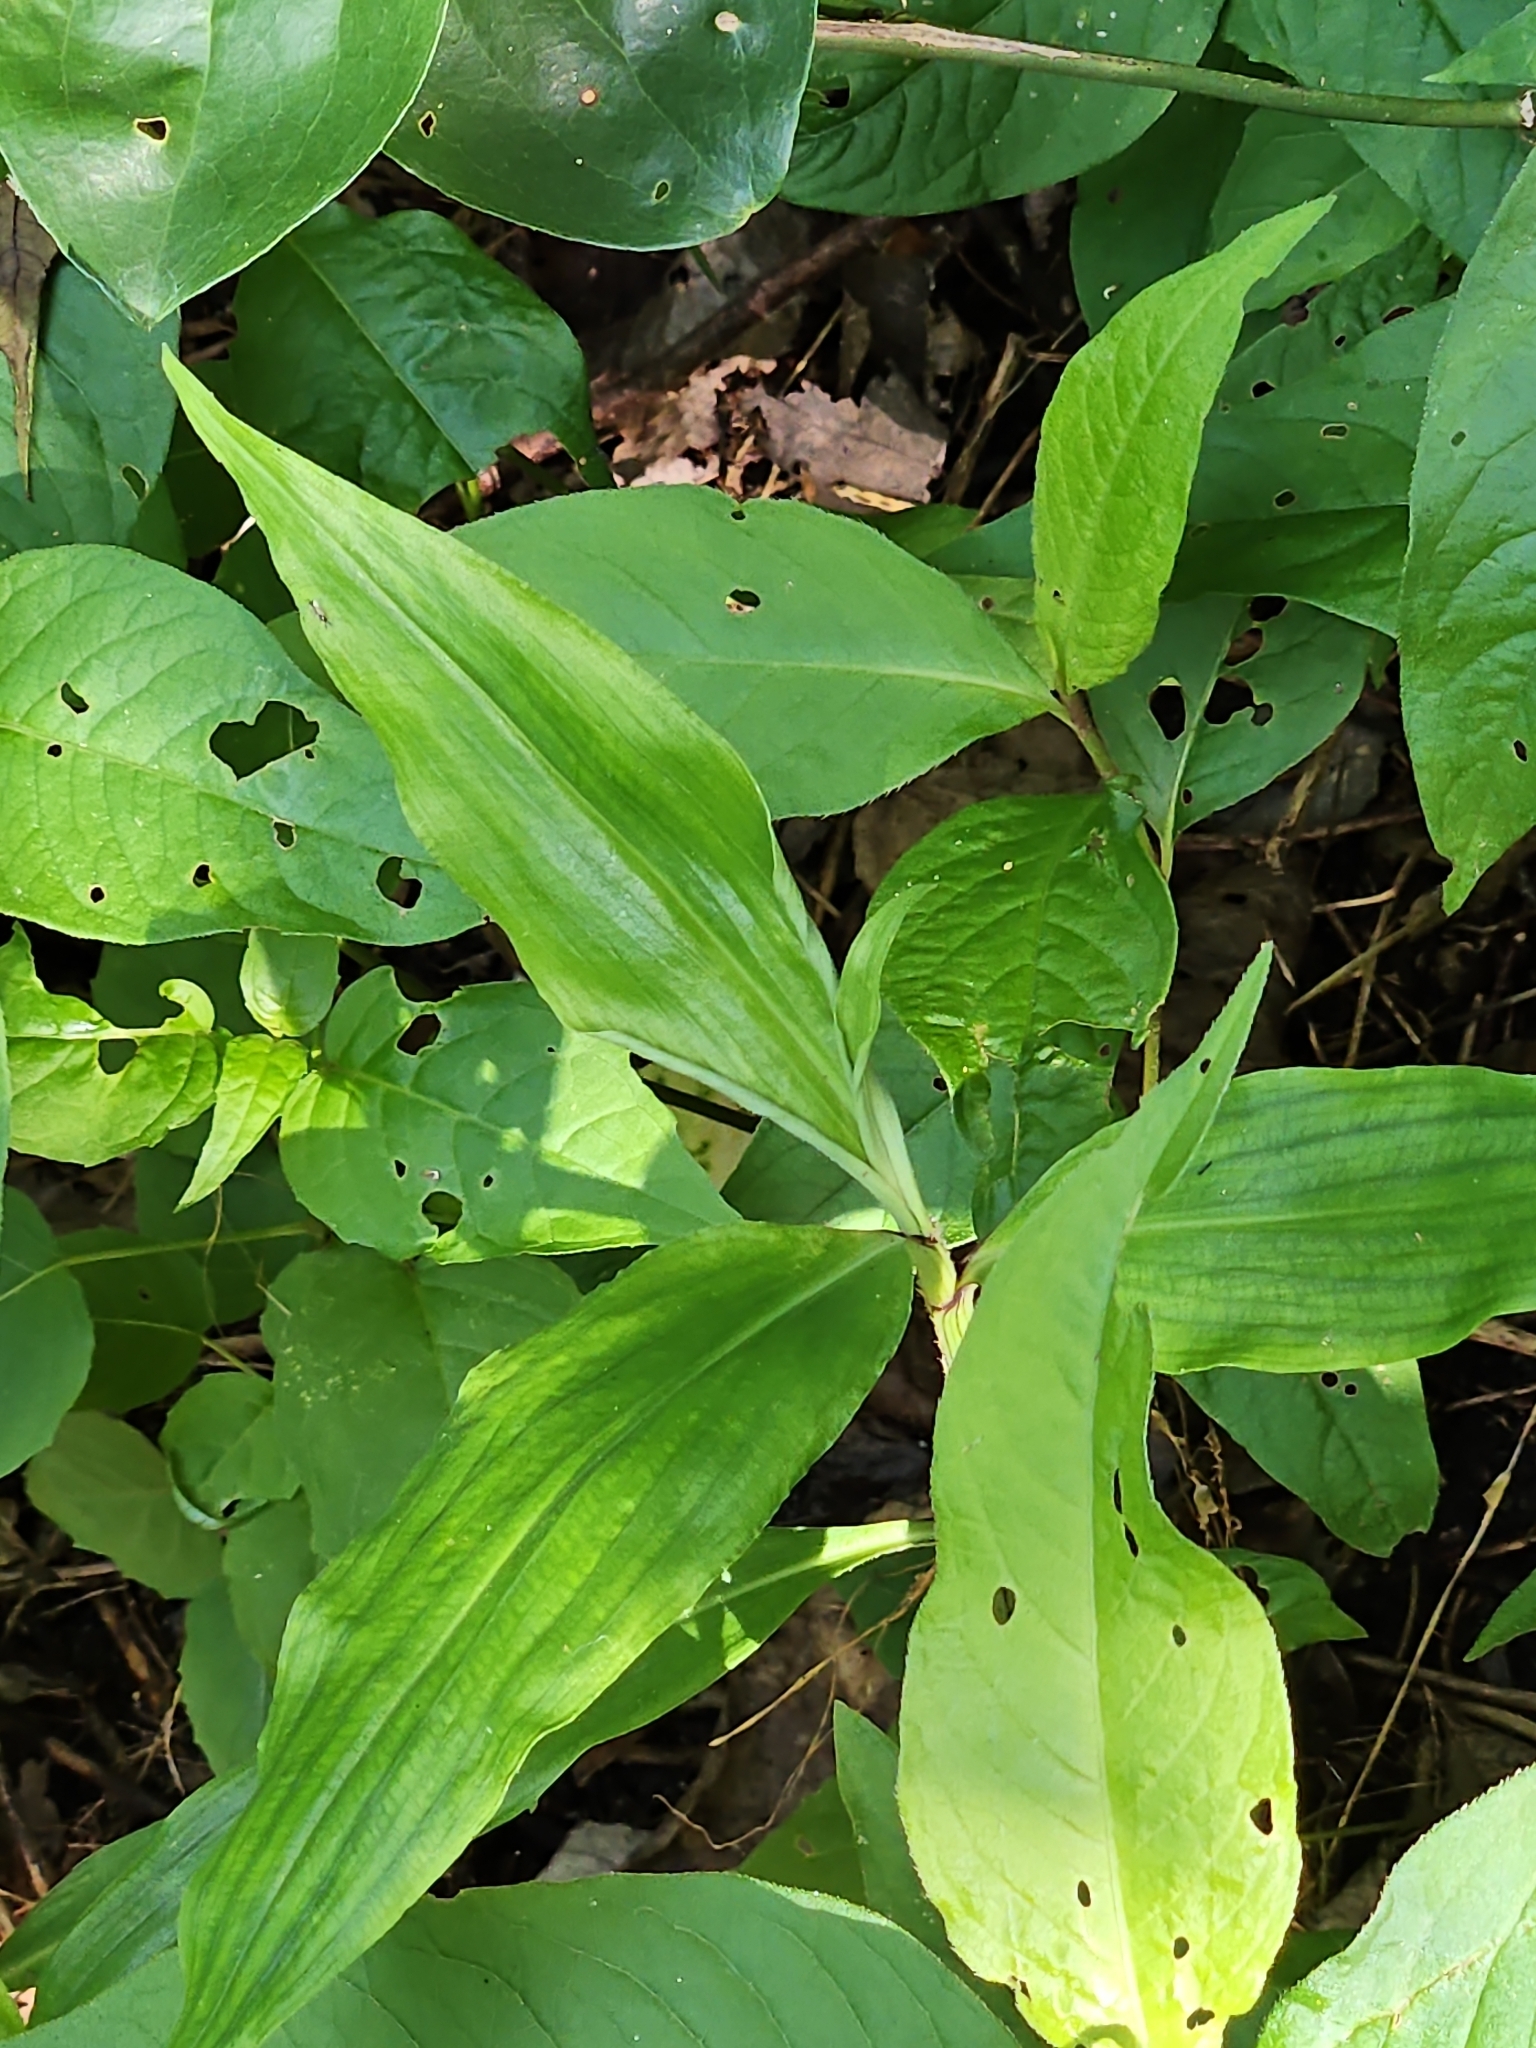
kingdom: Plantae
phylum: Tracheophyta
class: Liliopsida
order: Commelinales
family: Commelinaceae
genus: Commelina
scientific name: Commelina virginica
